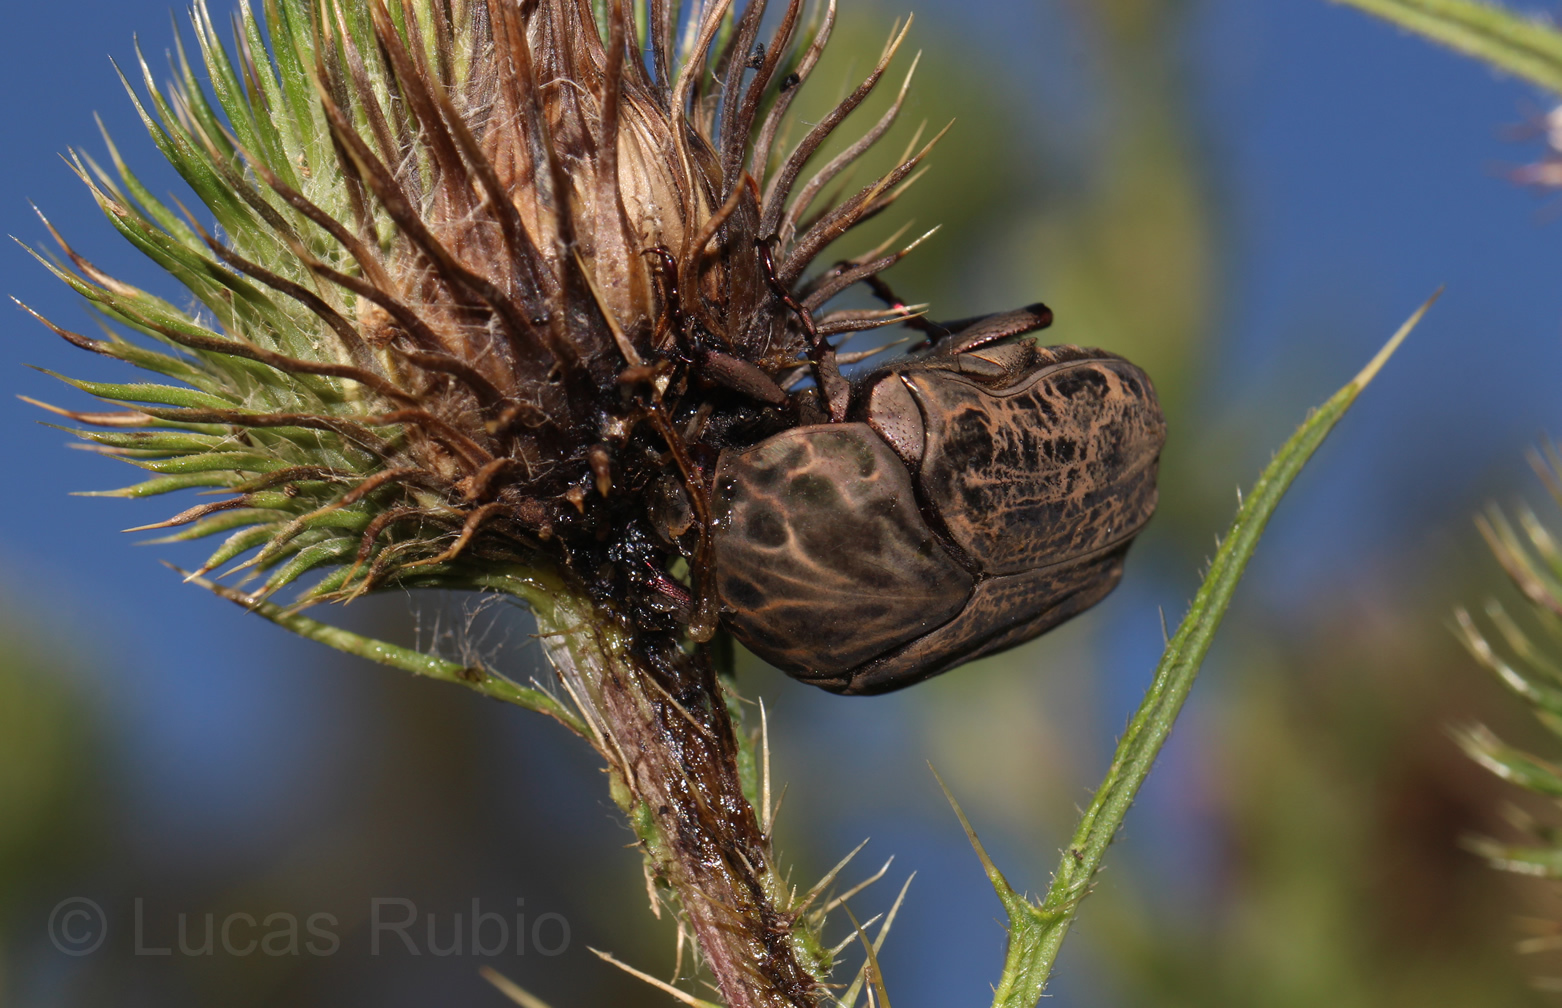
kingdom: Animalia
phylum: Arthropoda
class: Insecta
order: Coleoptera
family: Scarabaeidae
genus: Gymnetis
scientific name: Gymnetis chalcipes
